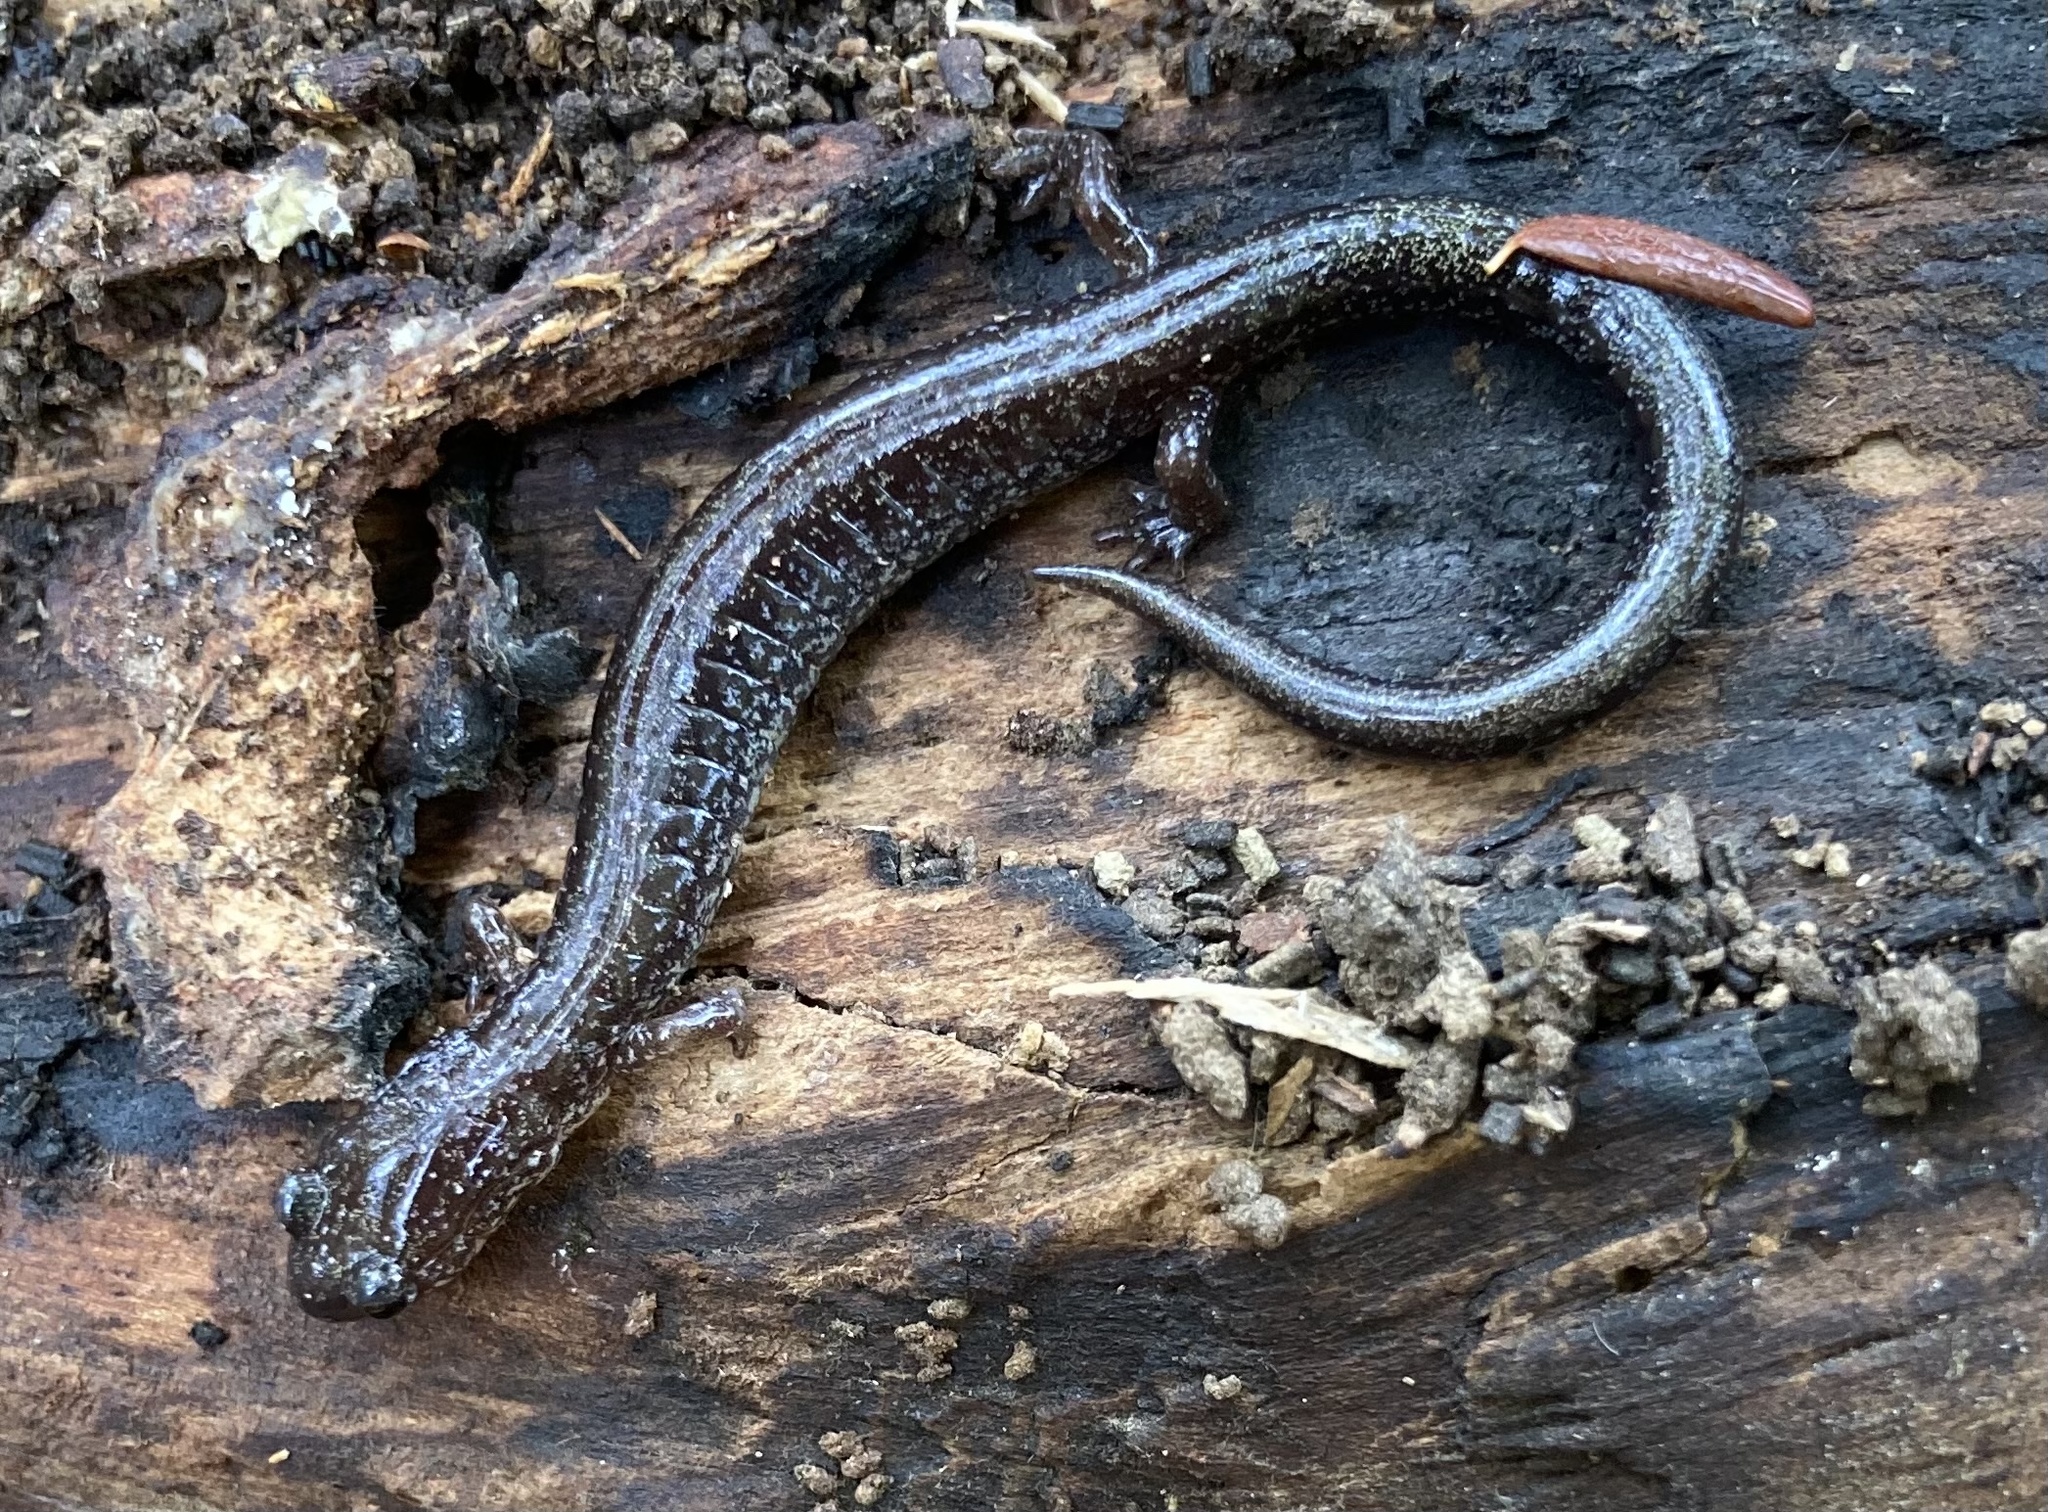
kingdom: Animalia
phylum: Chordata
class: Amphibia
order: Caudata
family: Plethodontidae
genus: Plethodon
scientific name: Plethodon cinereus
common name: Redback salamander
